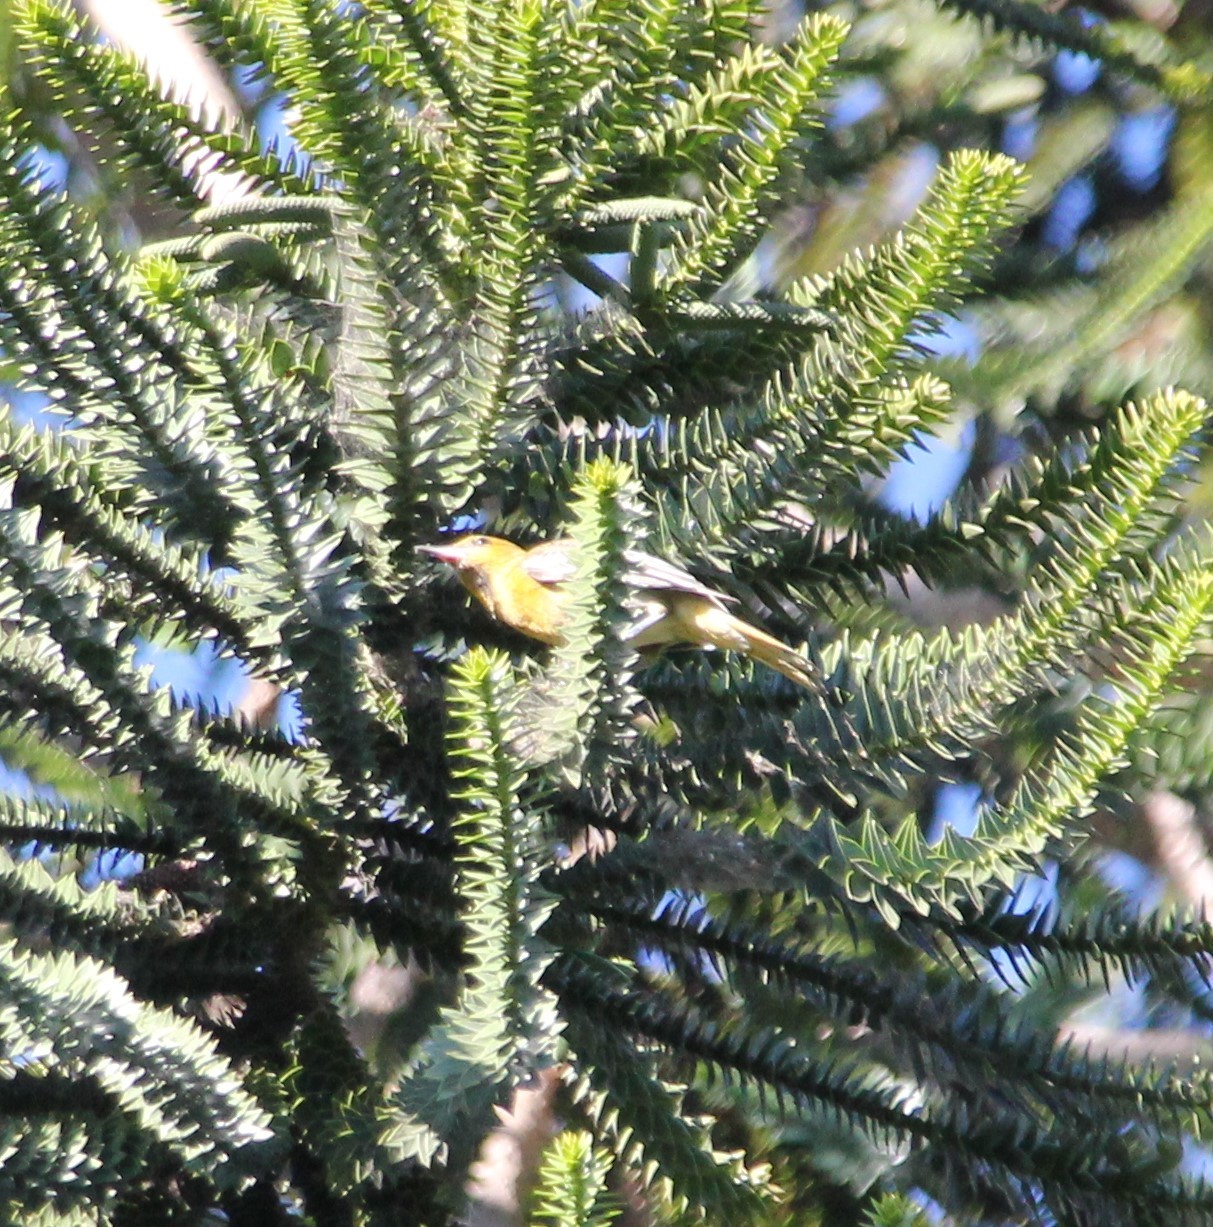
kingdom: Animalia
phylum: Chordata
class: Aves
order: Passeriformes
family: Icteridae
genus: Icterus
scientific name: Icterus bullockii
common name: Bullock's oriole
